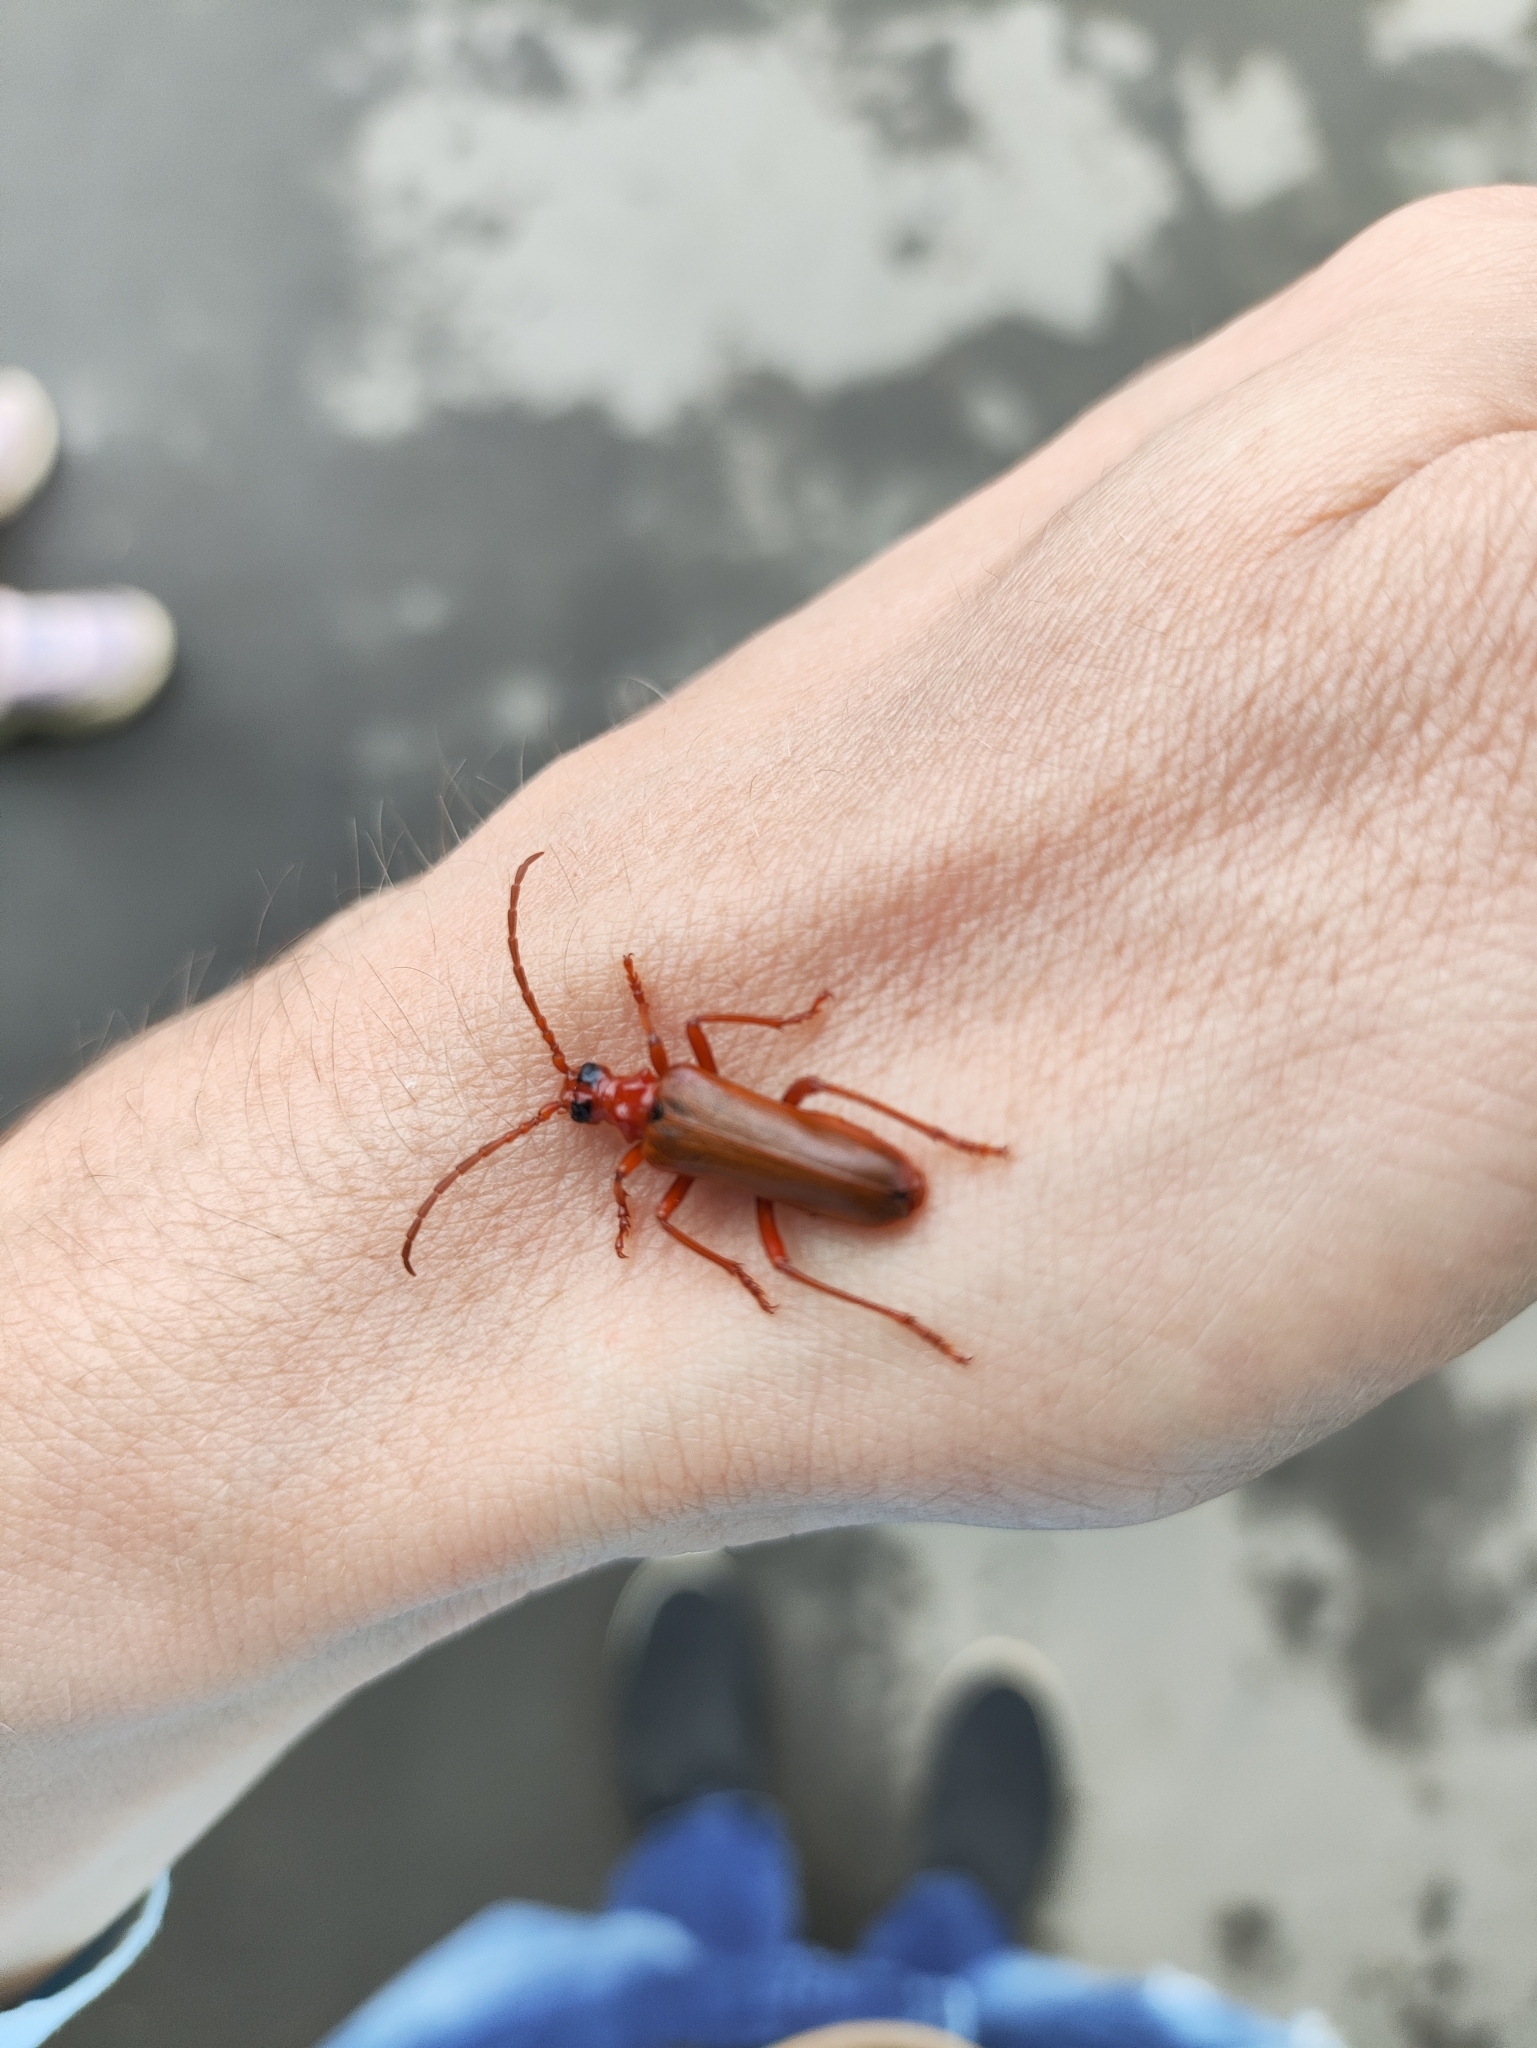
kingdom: Animalia
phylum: Arthropoda
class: Insecta
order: Coleoptera
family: Cerambycidae
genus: Rhamnusium
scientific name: Rhamnusium bicolor
